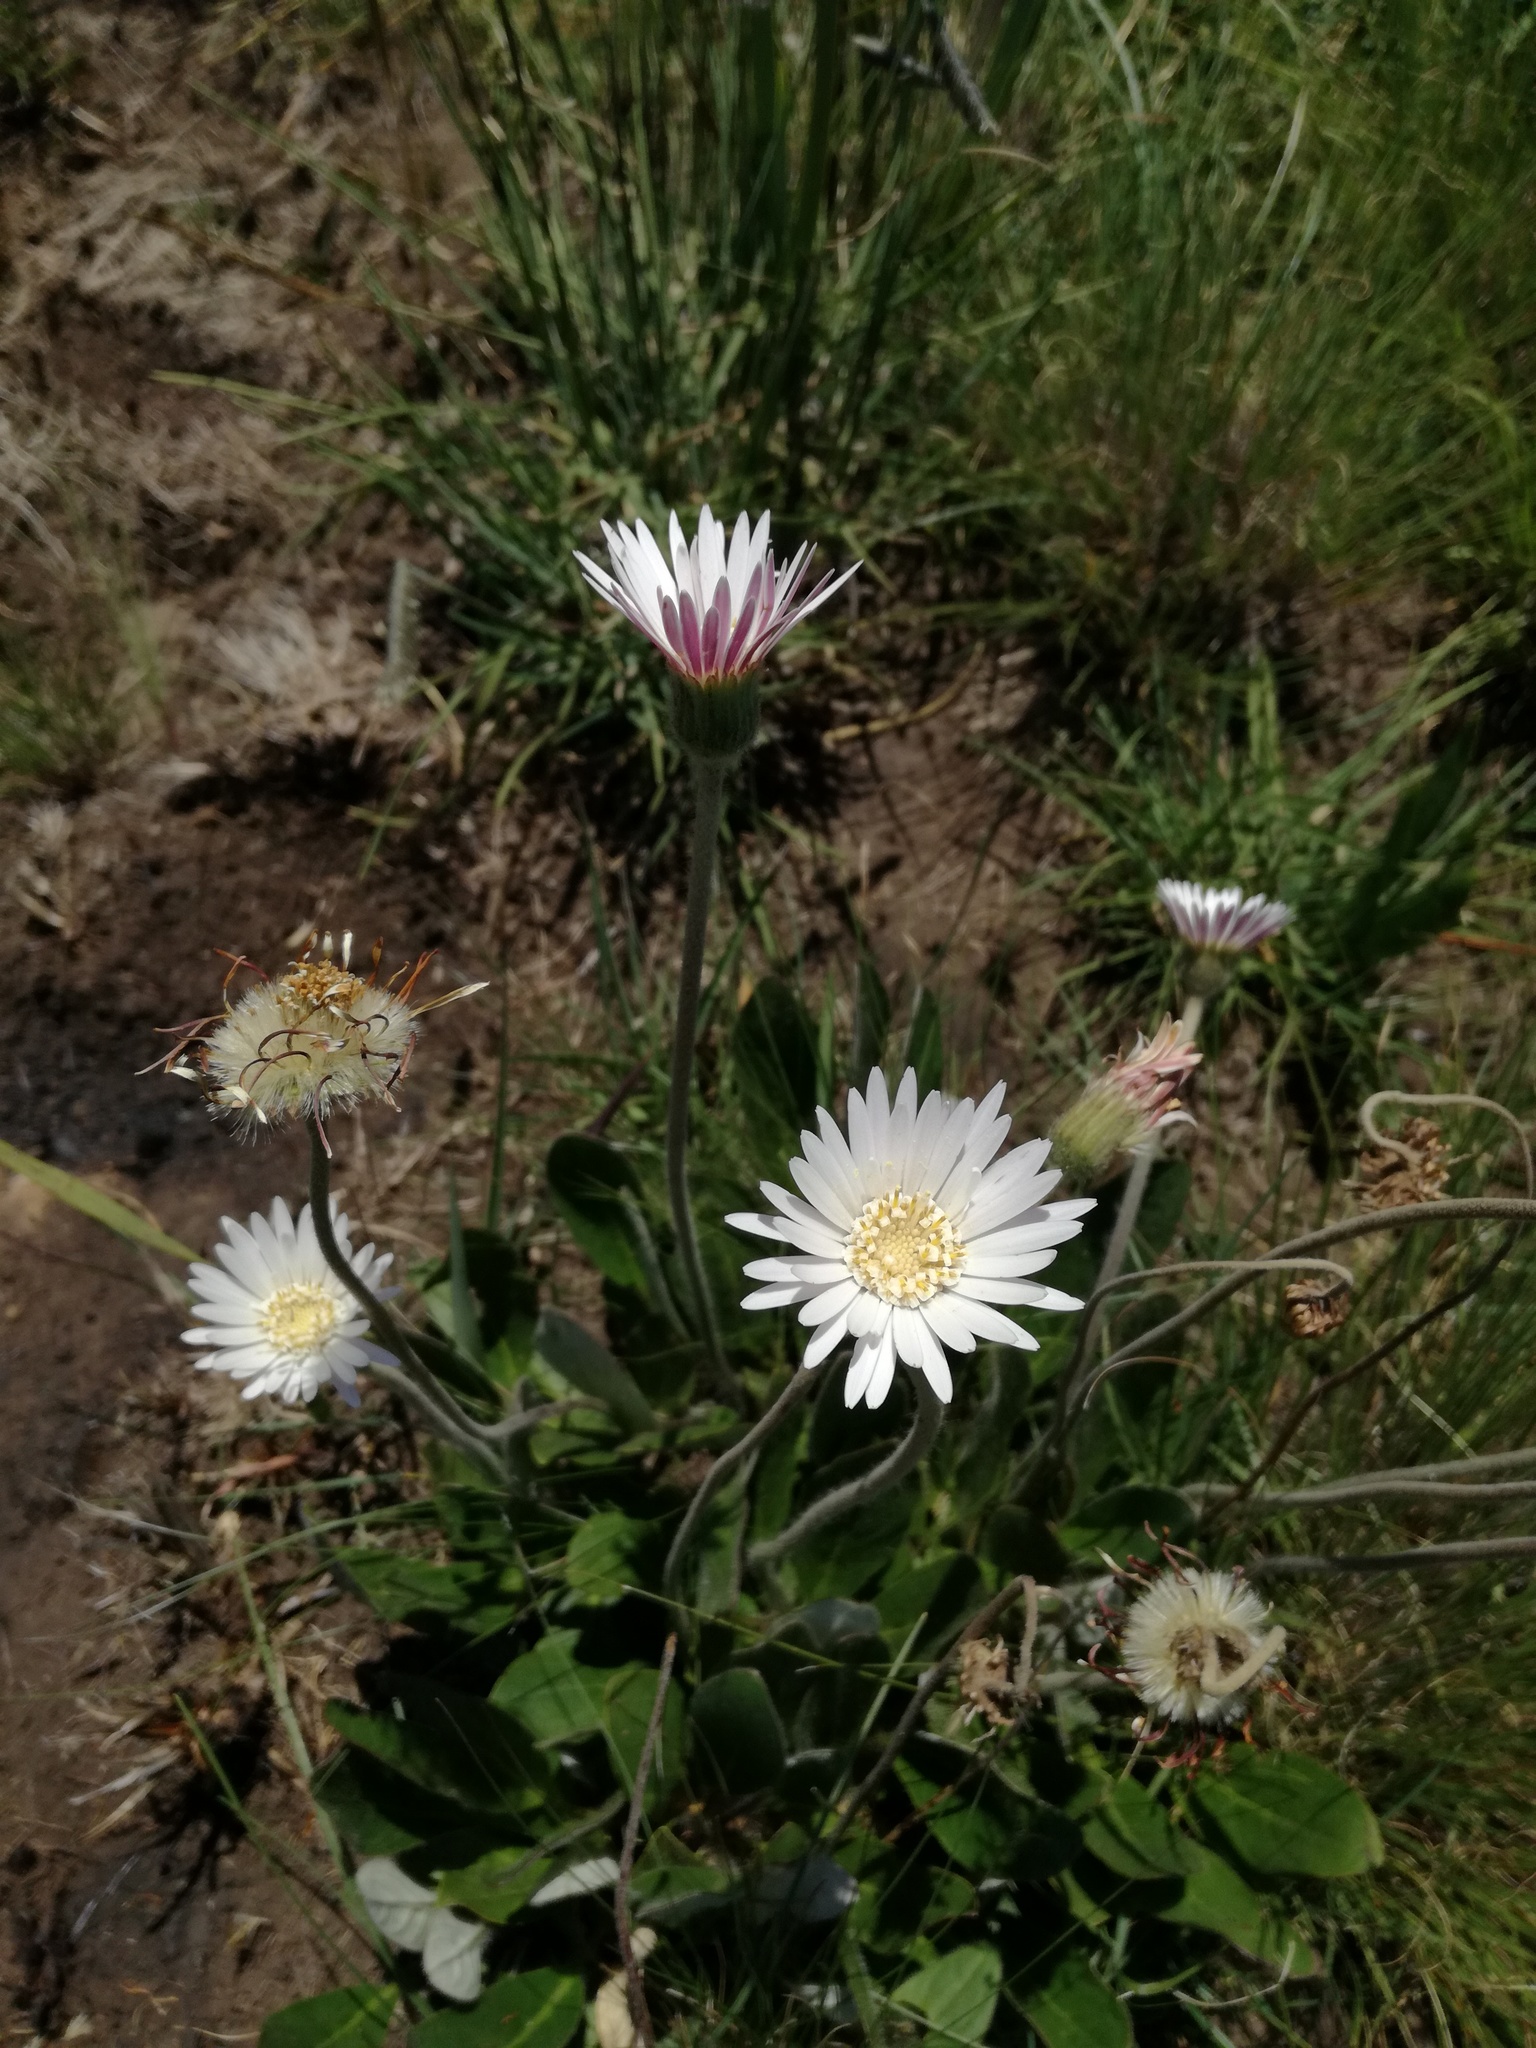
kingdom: Plantae
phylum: Tracheophyta
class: Magnoliopsida
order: Asterales
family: Asteraceae
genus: Gerbera
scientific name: Gerbera ambigua
